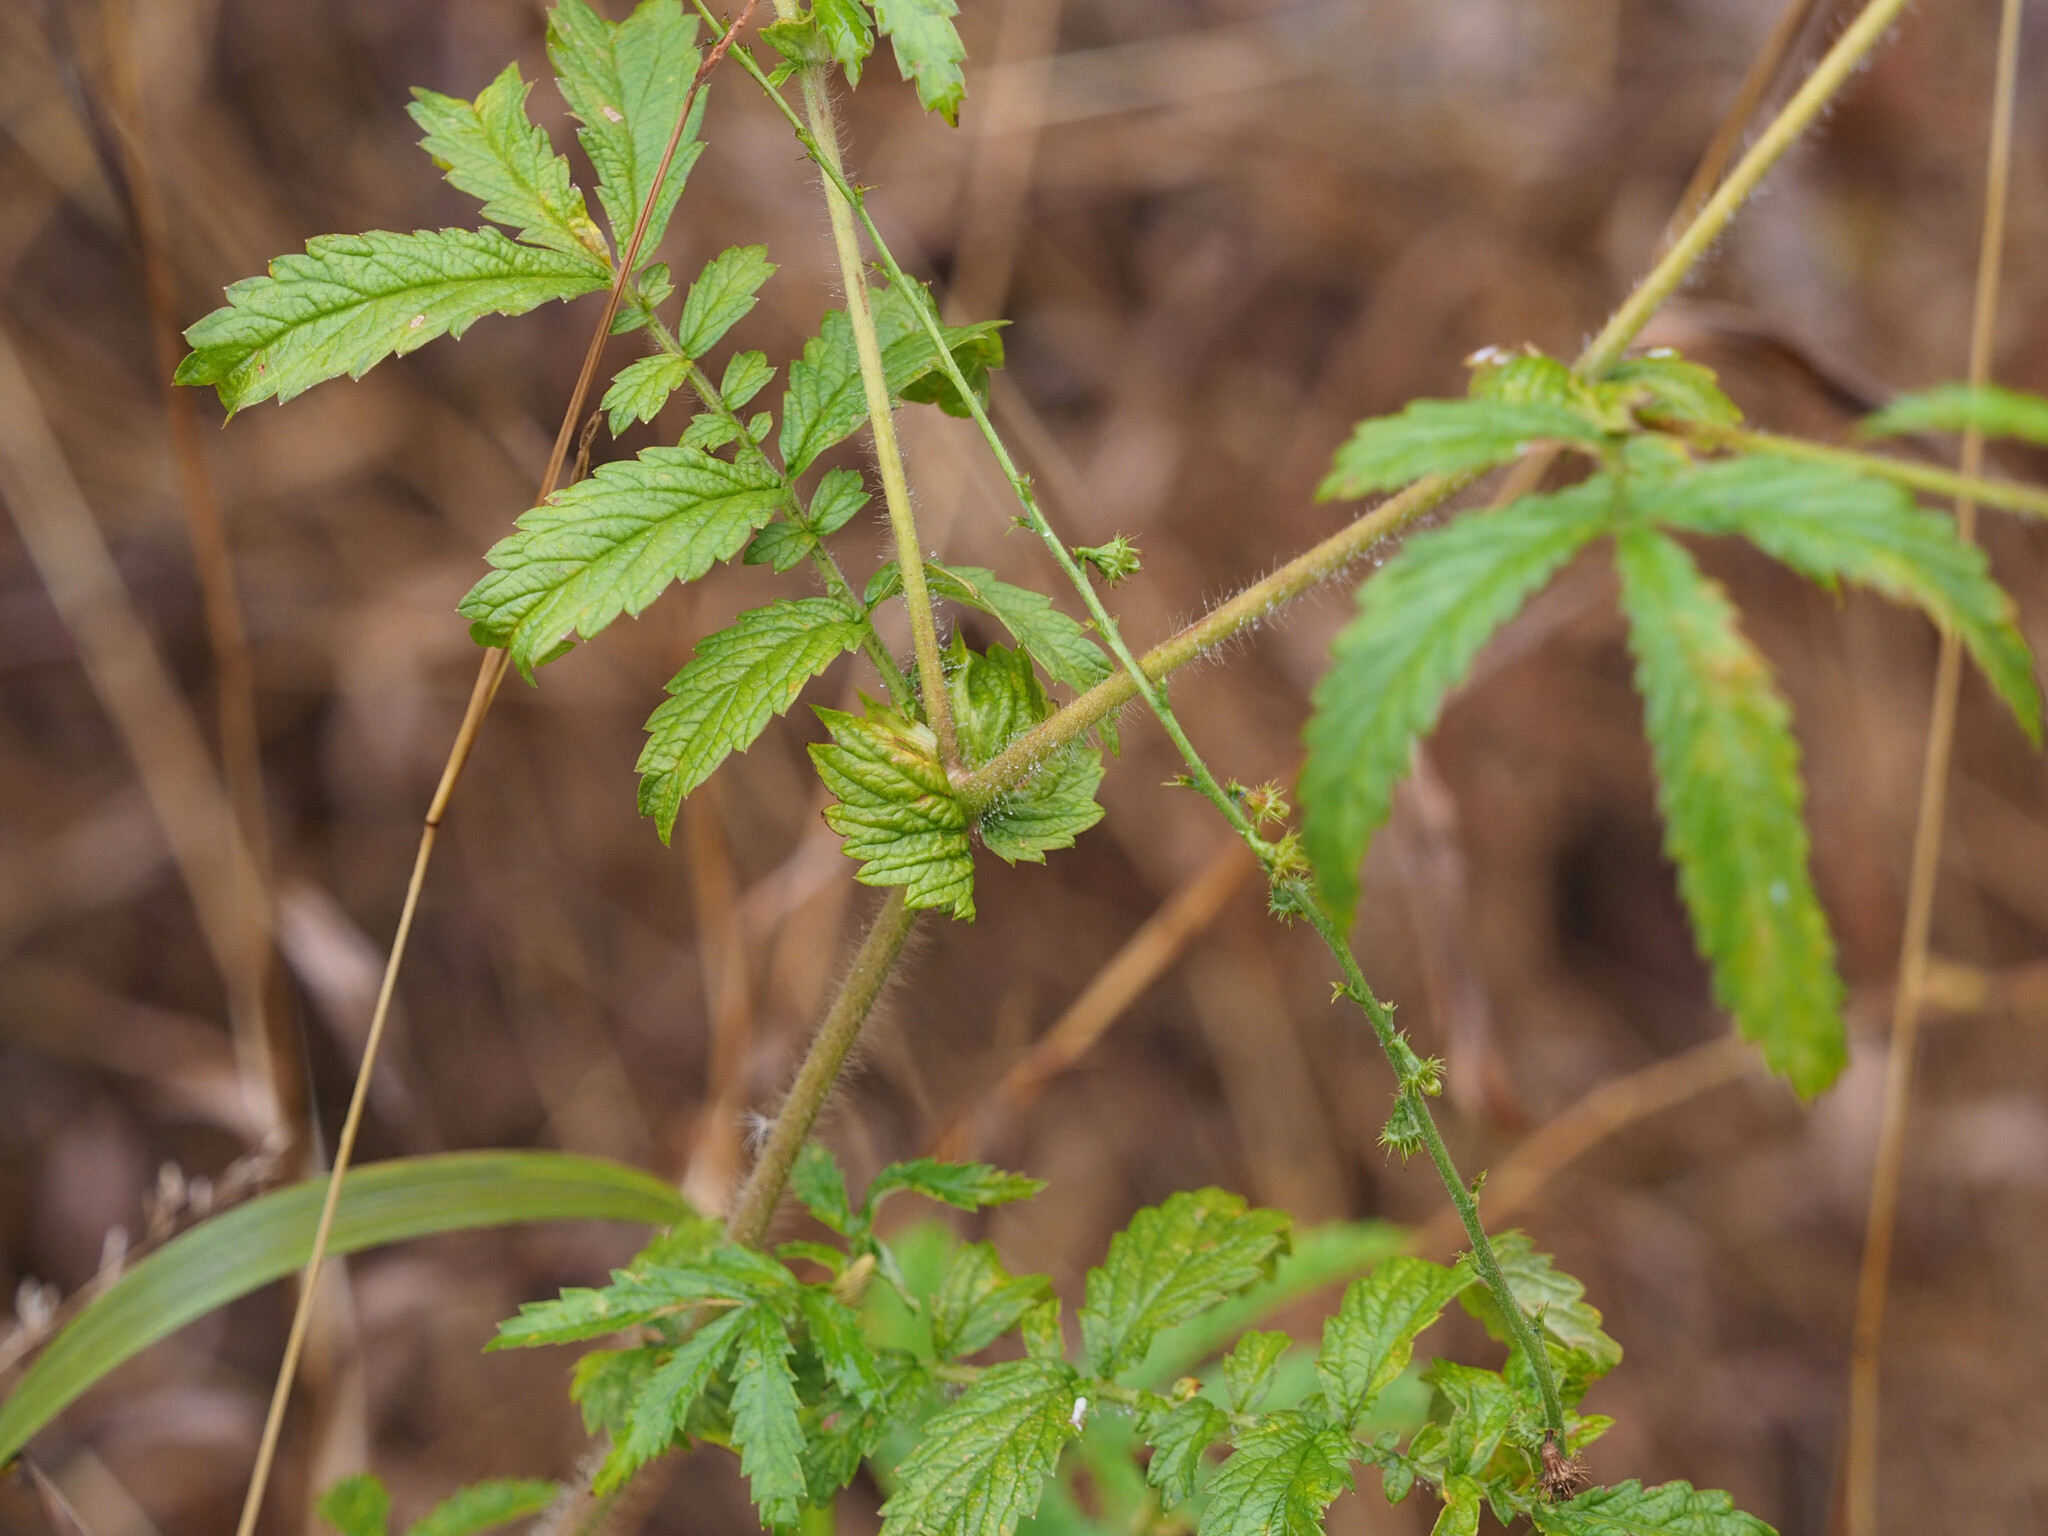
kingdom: Plantae
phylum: Tracheophyta
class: Magnoliopsida
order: Rosales
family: Rosaceae
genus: Agrimonia
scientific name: Agrimonia parviflora
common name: Harvest-lice
